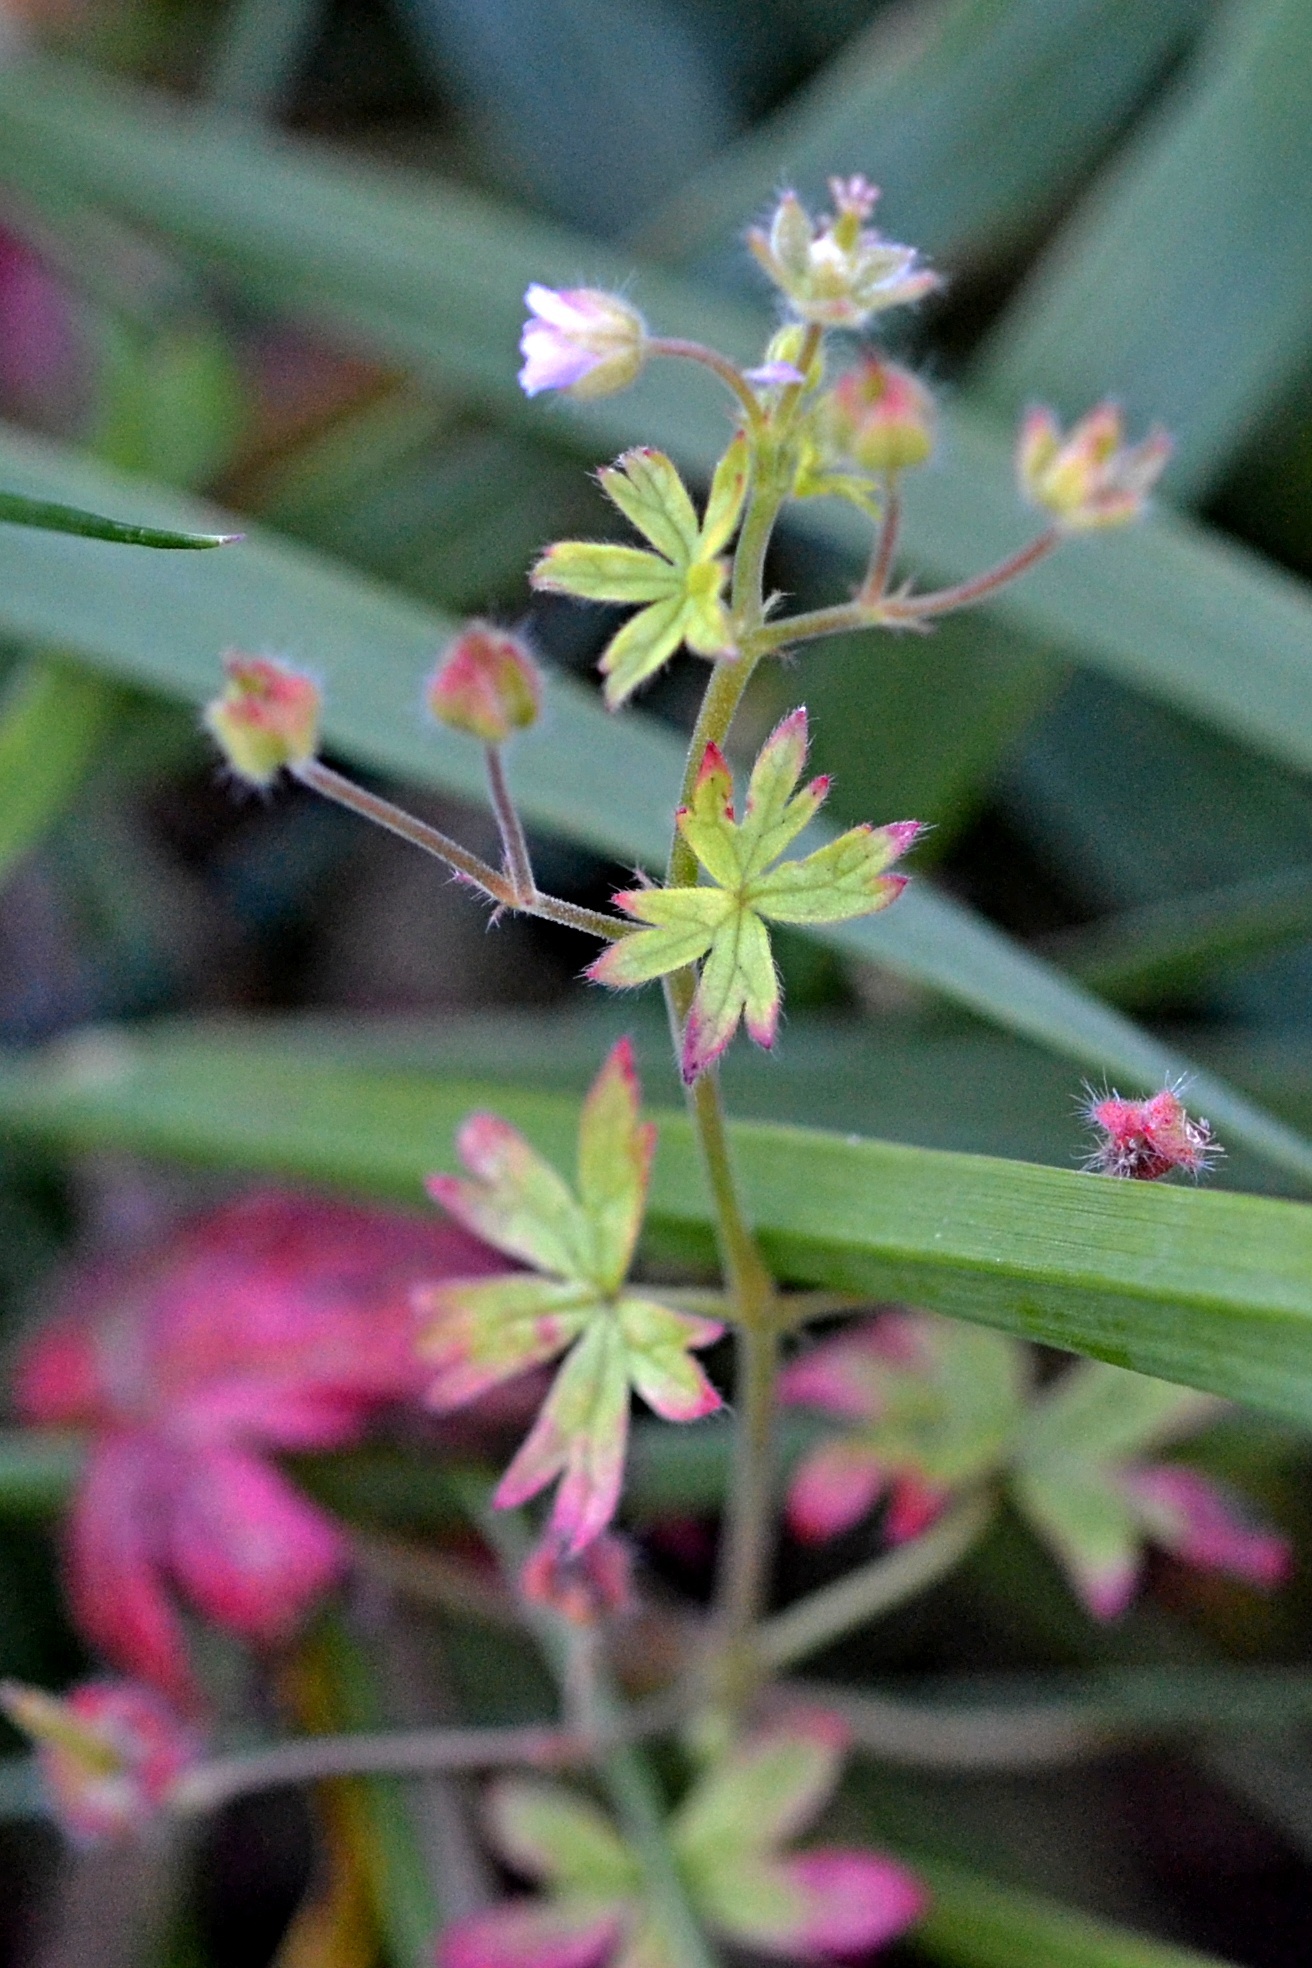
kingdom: Plantae
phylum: Tracheophyta
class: Magnoliopsida
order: Geraniales
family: Geraniaceae
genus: Geranium
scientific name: Geranium pusillum
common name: Small geranium
